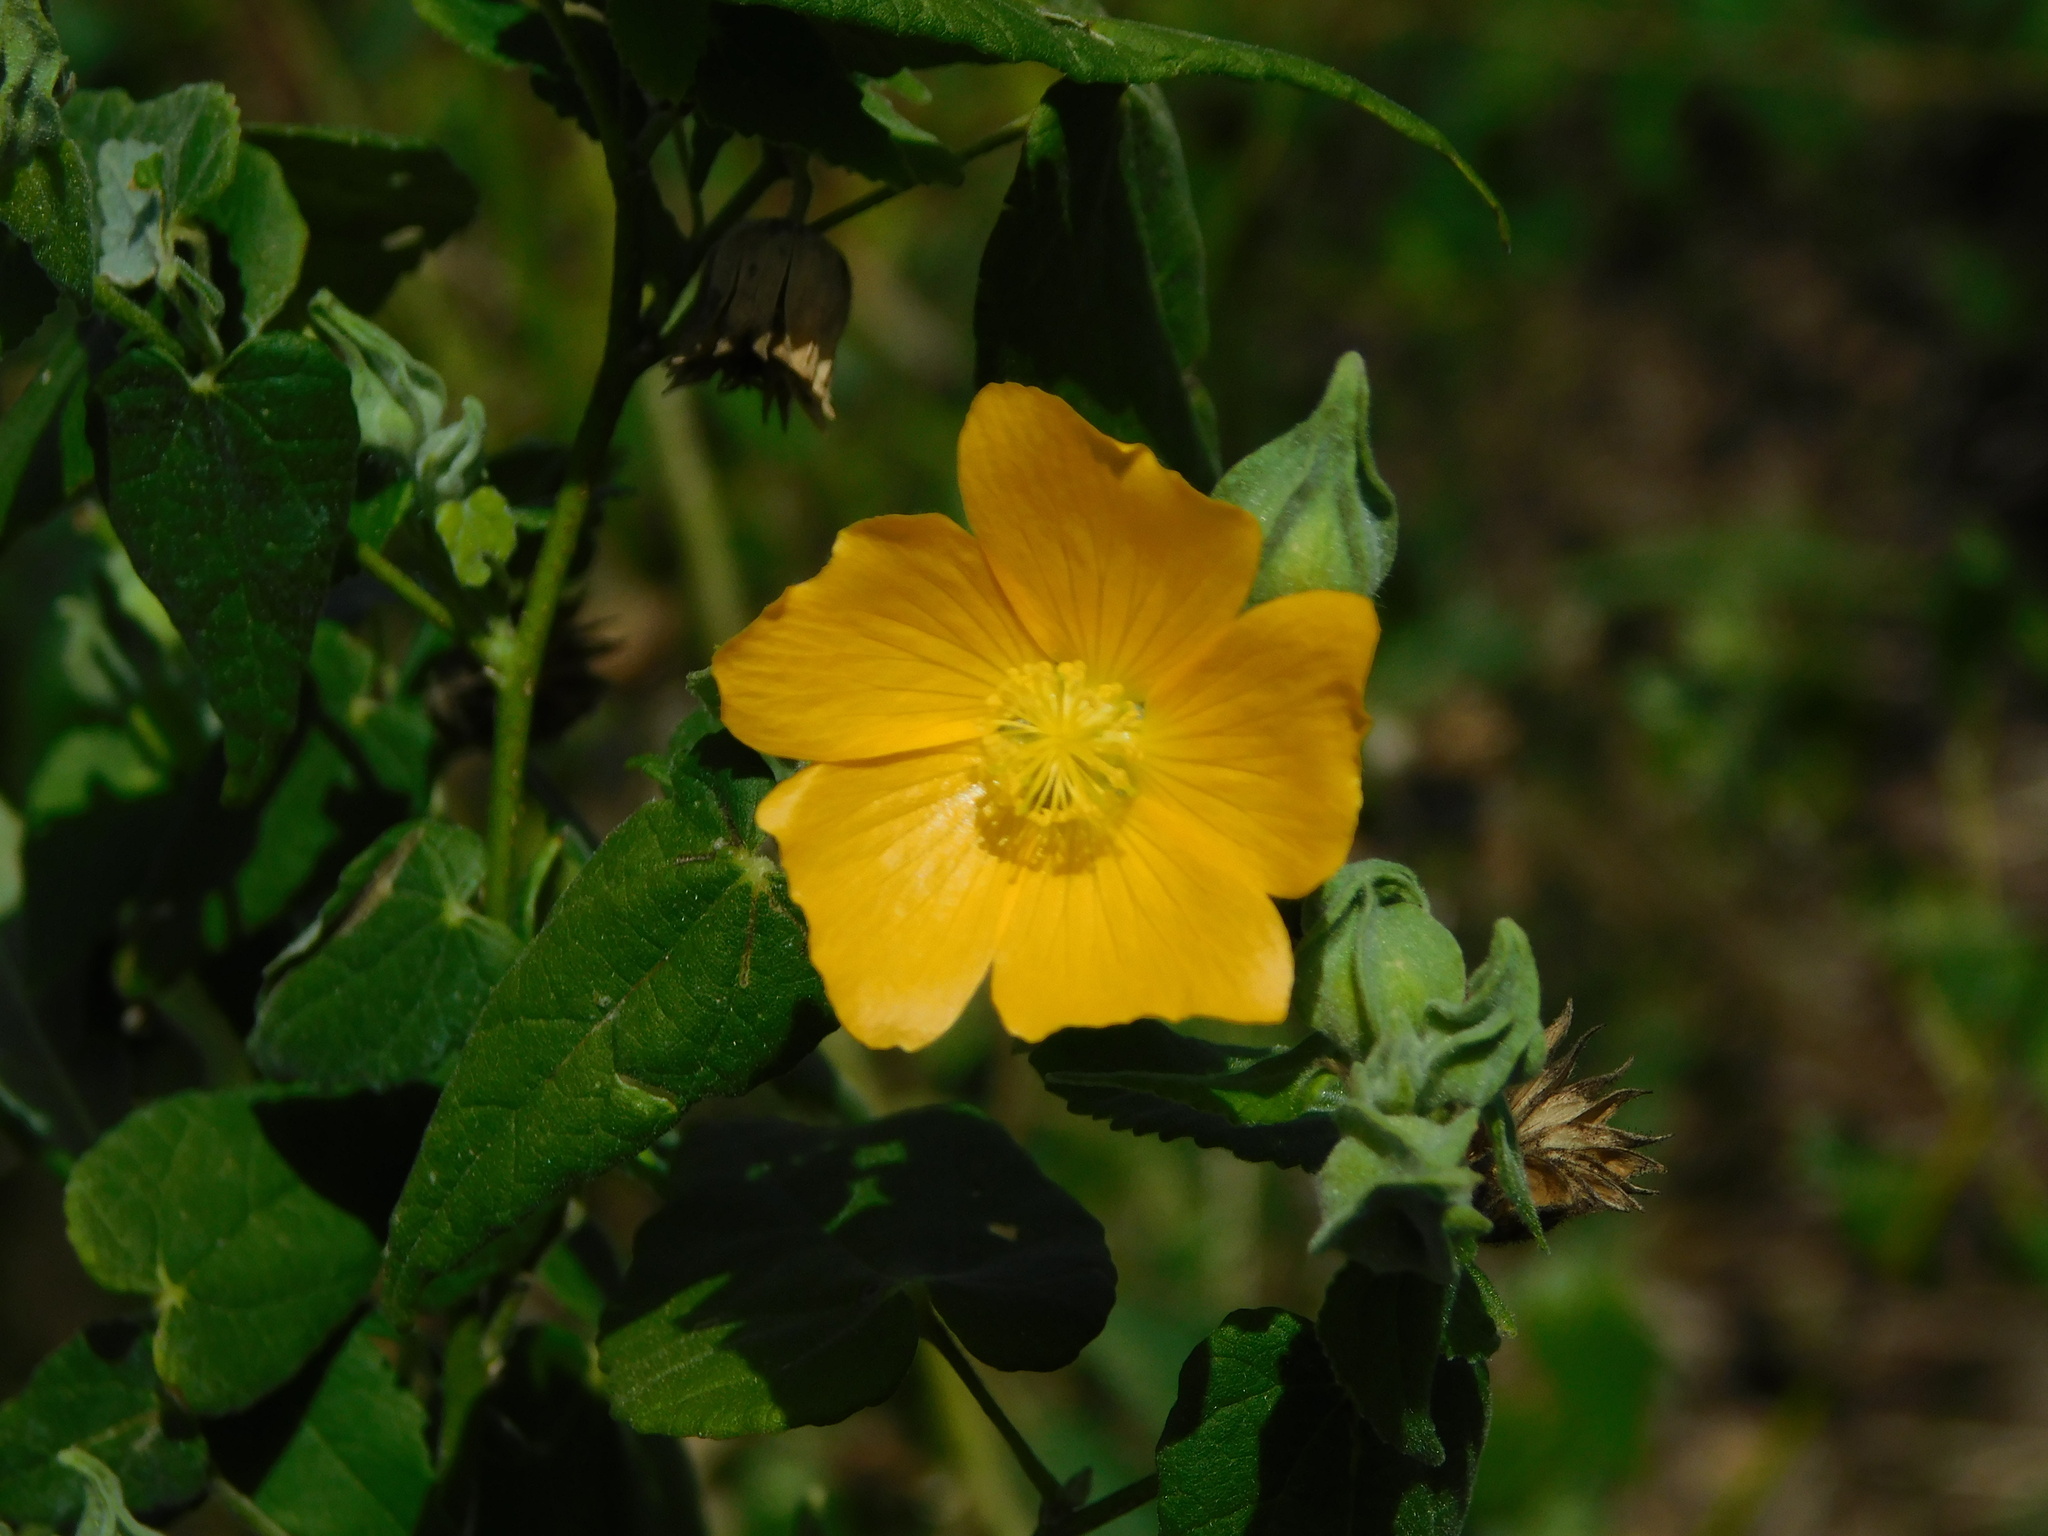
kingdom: Plantae
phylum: Tracheophyta
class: Magnoliopsida
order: Malvales
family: Malvaceae
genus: Abutilon
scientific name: Abutilon permolle
